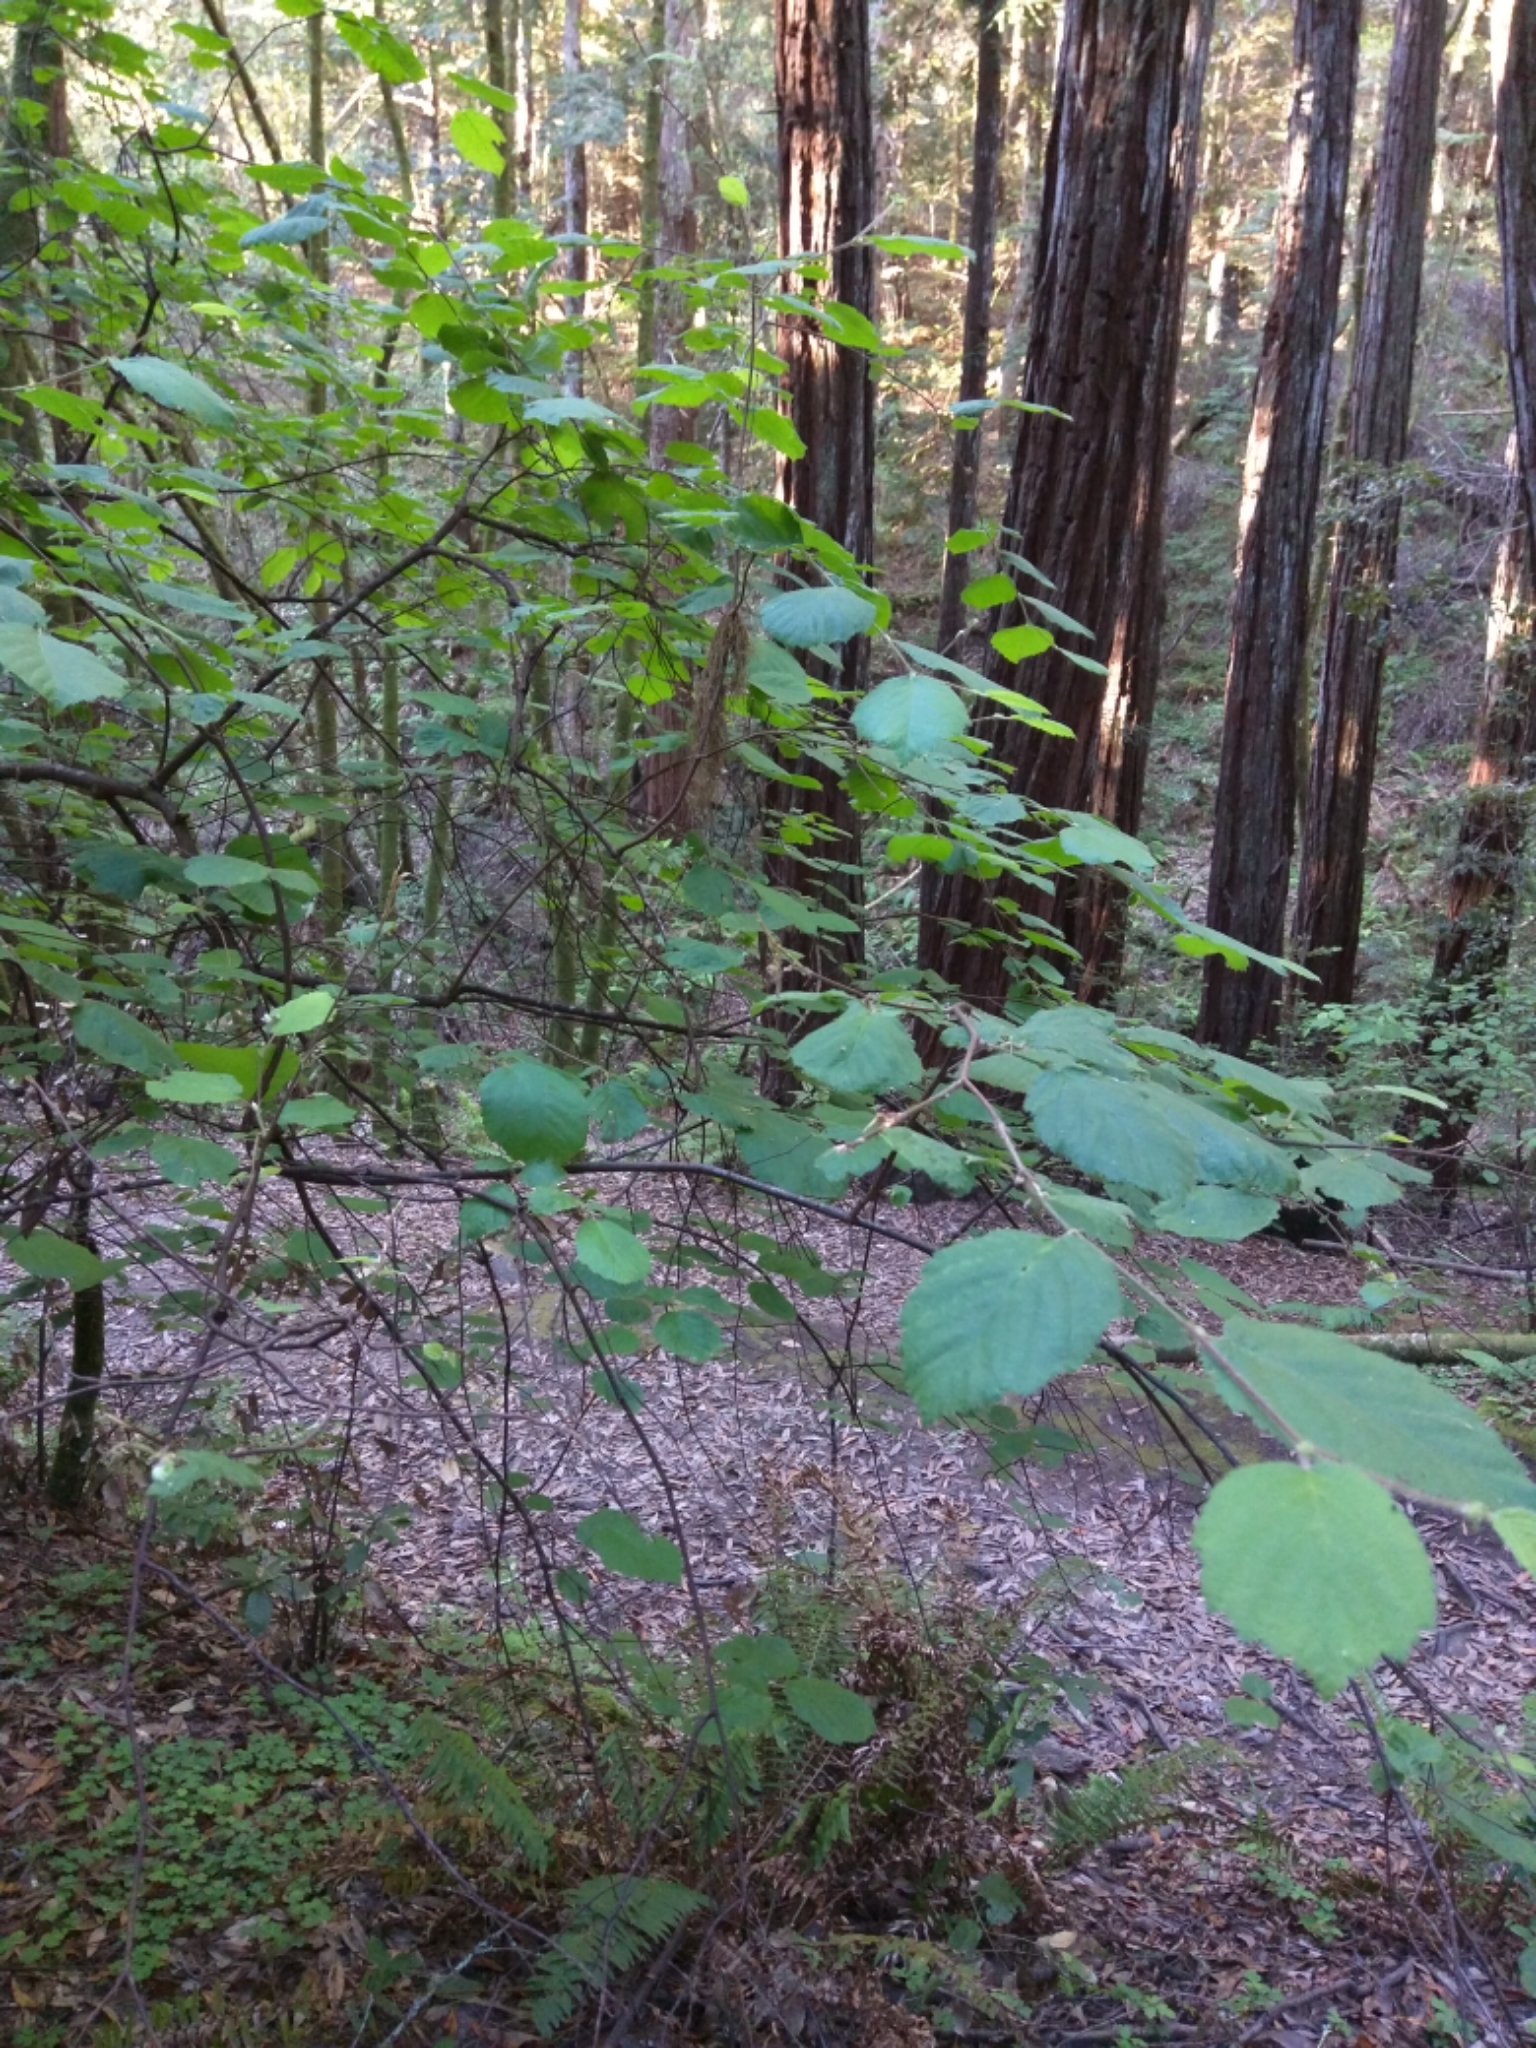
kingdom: Plantae
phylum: Tracheophyta
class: Magnoliopsida
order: Fagales
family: Betulaceae
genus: Corylus
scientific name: Corylus cornuta
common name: Beaked hazel
